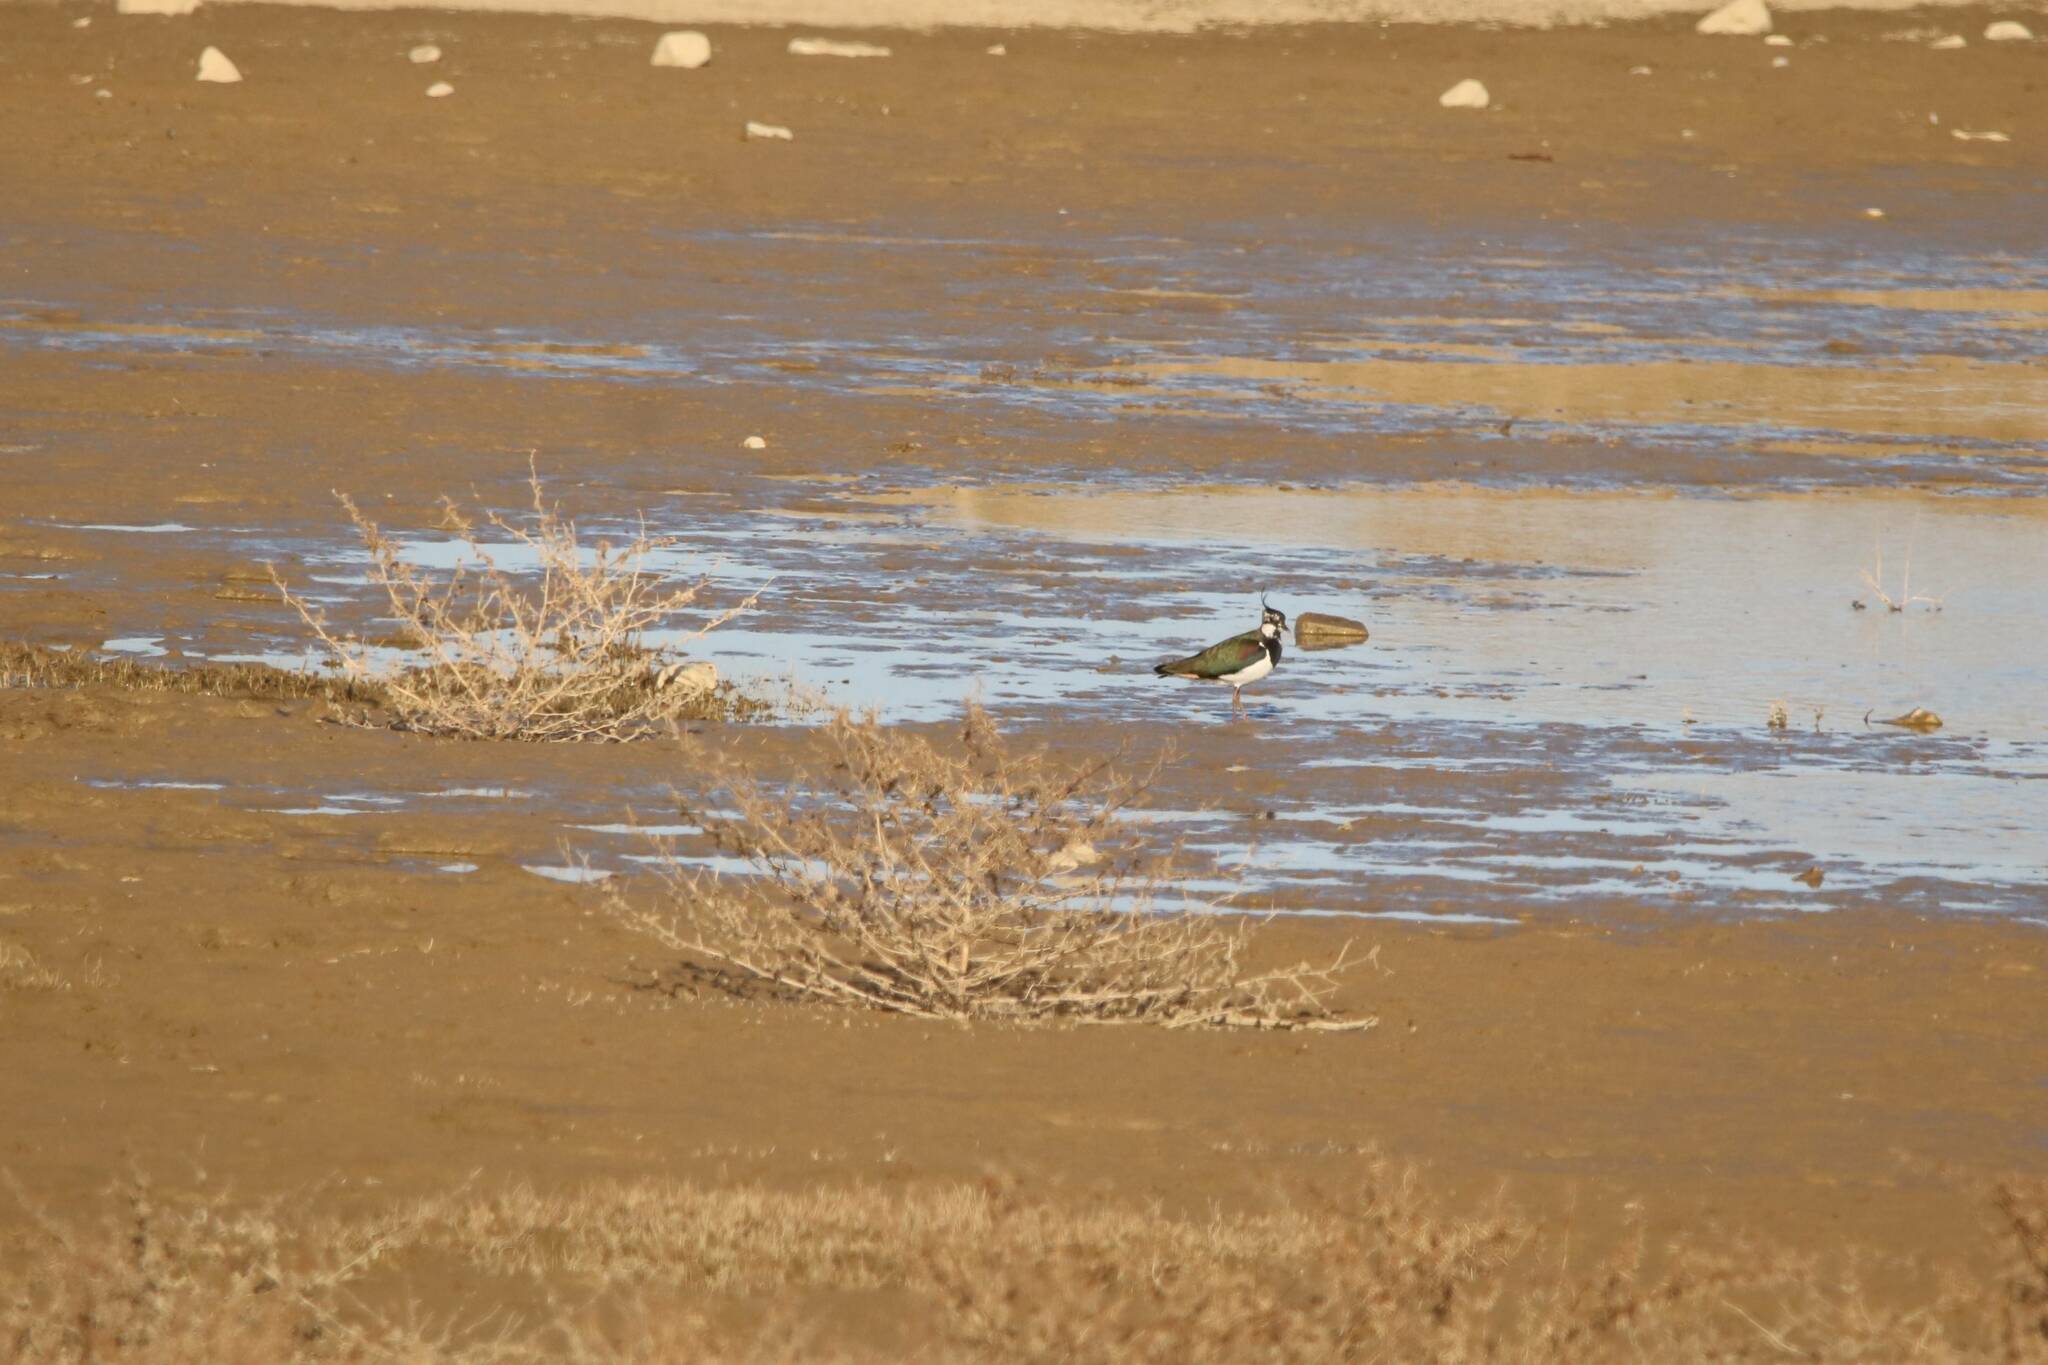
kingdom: Animalia
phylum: Chordata
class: Aves
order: Charadriiformes
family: Charadriidae
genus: Vanellus
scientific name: Vanellus vanellus
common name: Northern lapwing
